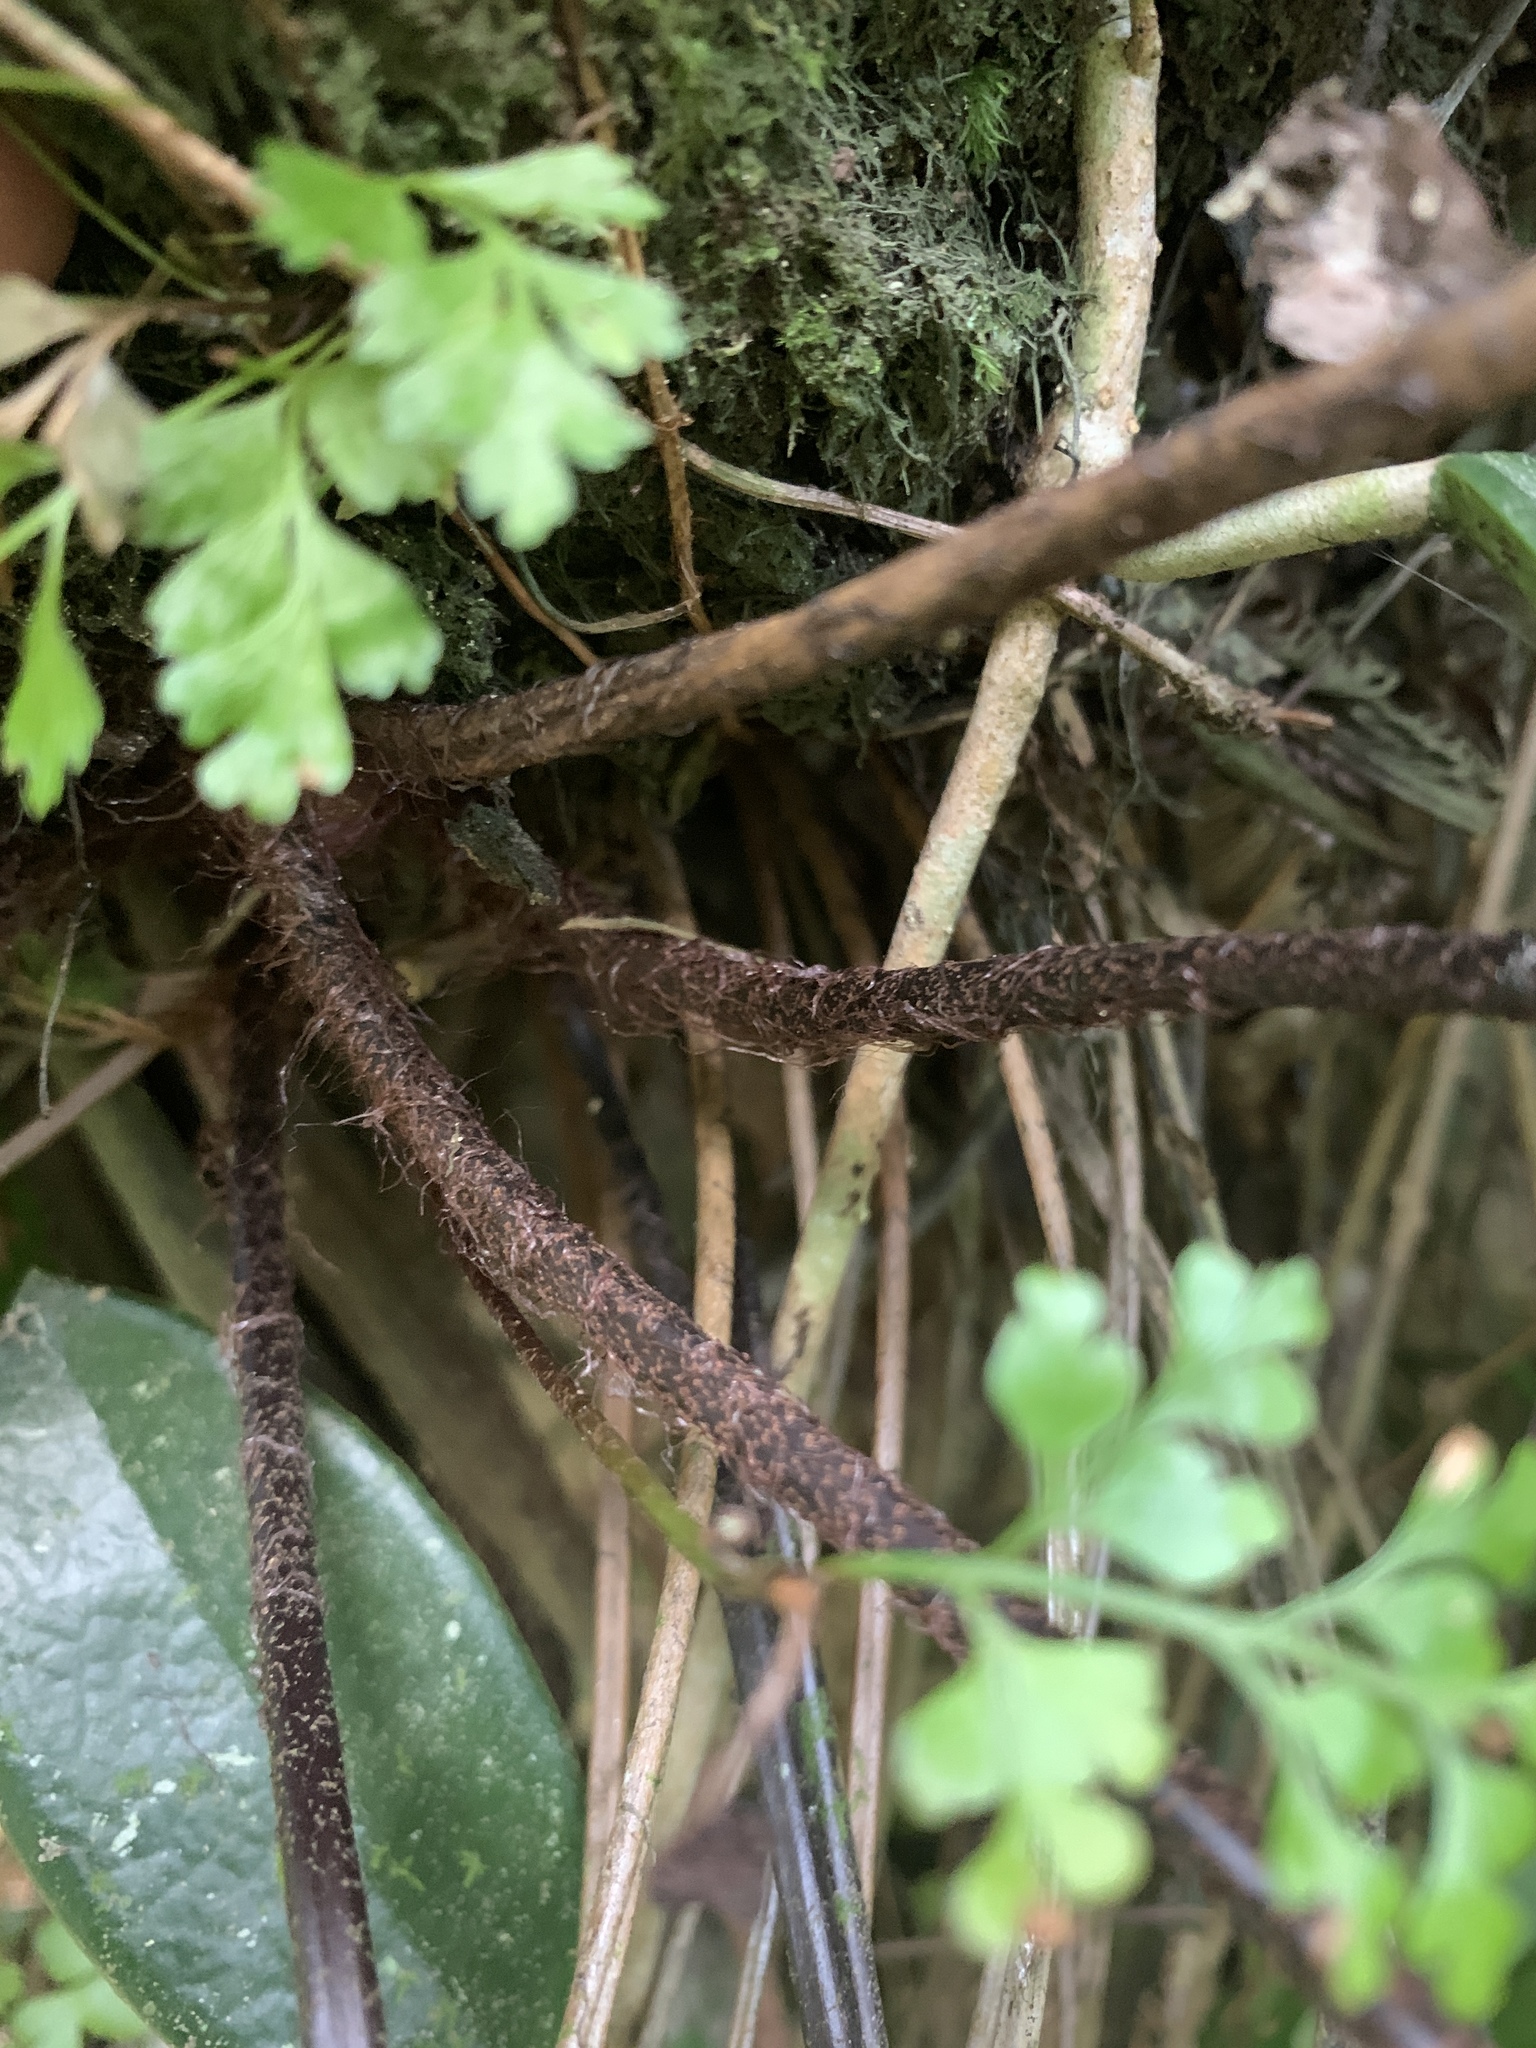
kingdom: Plantae
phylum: Tracheophyta
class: Polypodiopsida
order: Polypodiales
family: Aspleniaceae
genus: Asplenium
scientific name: Asplenium pseudolaserpitiifolium
